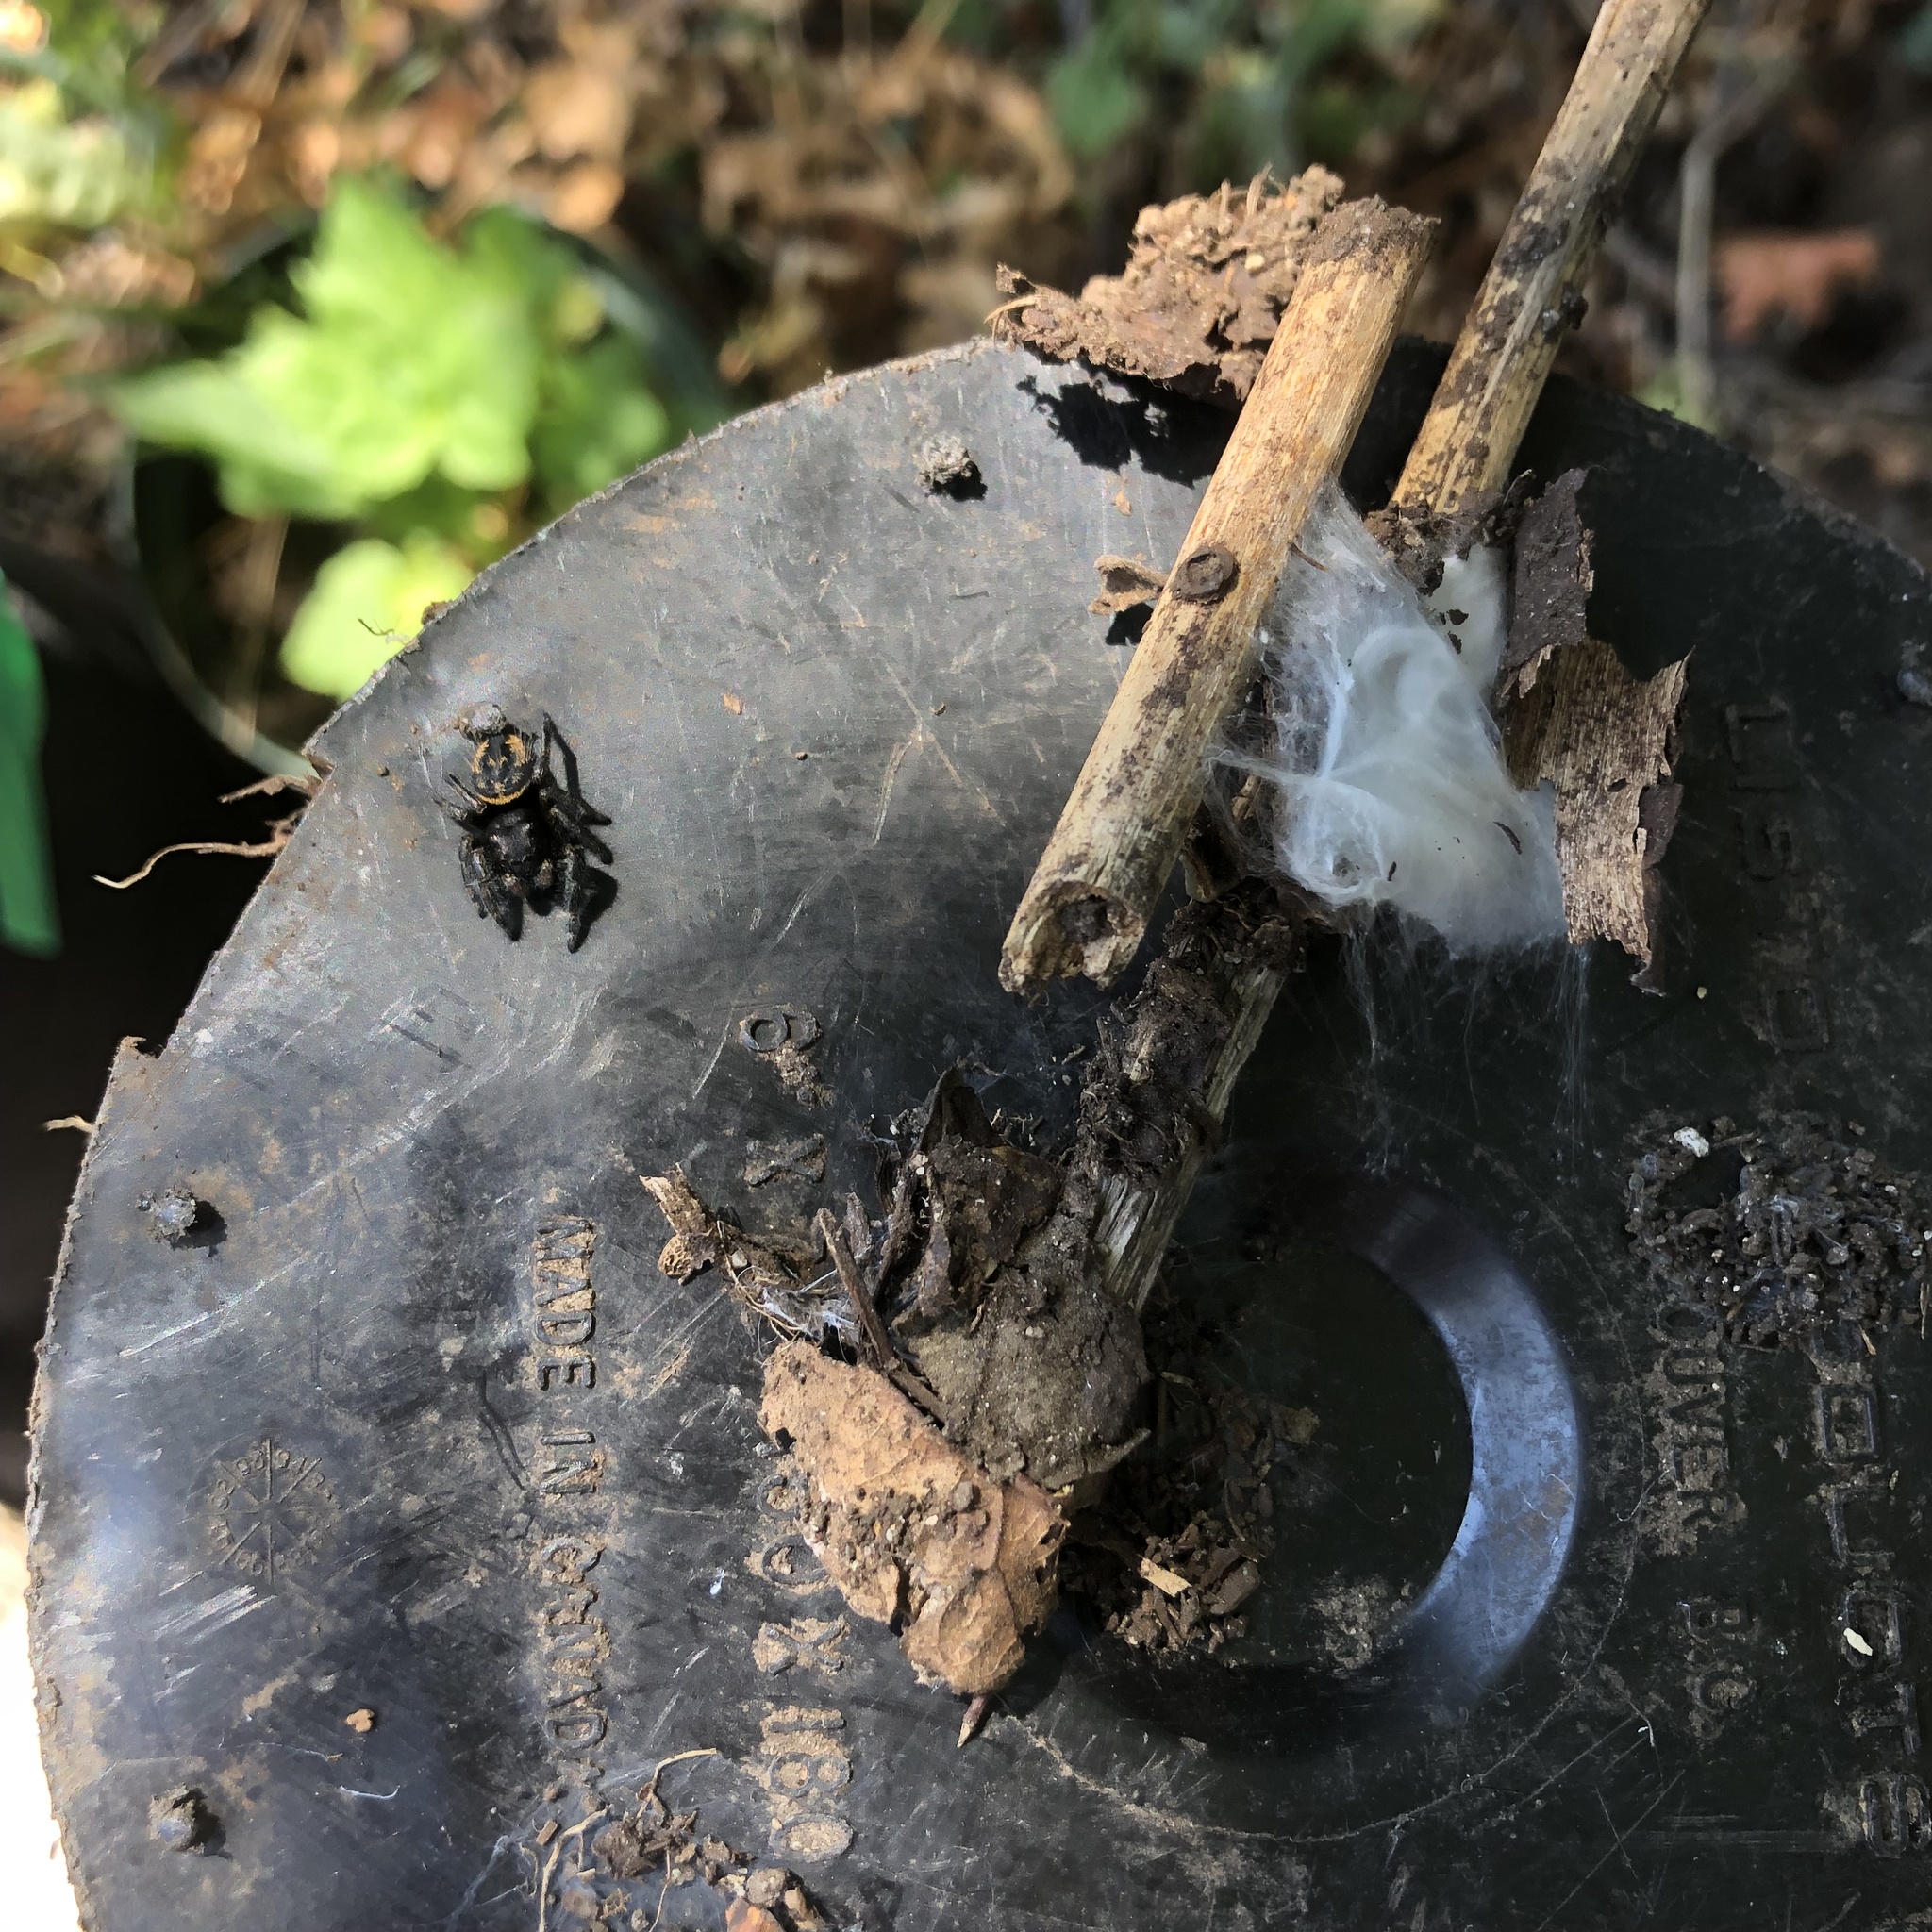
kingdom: Animalia
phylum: Arthropoda
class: Arachnida
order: Araneae
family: Salticidae
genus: Phidippus
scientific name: Phidippus johnsoni
